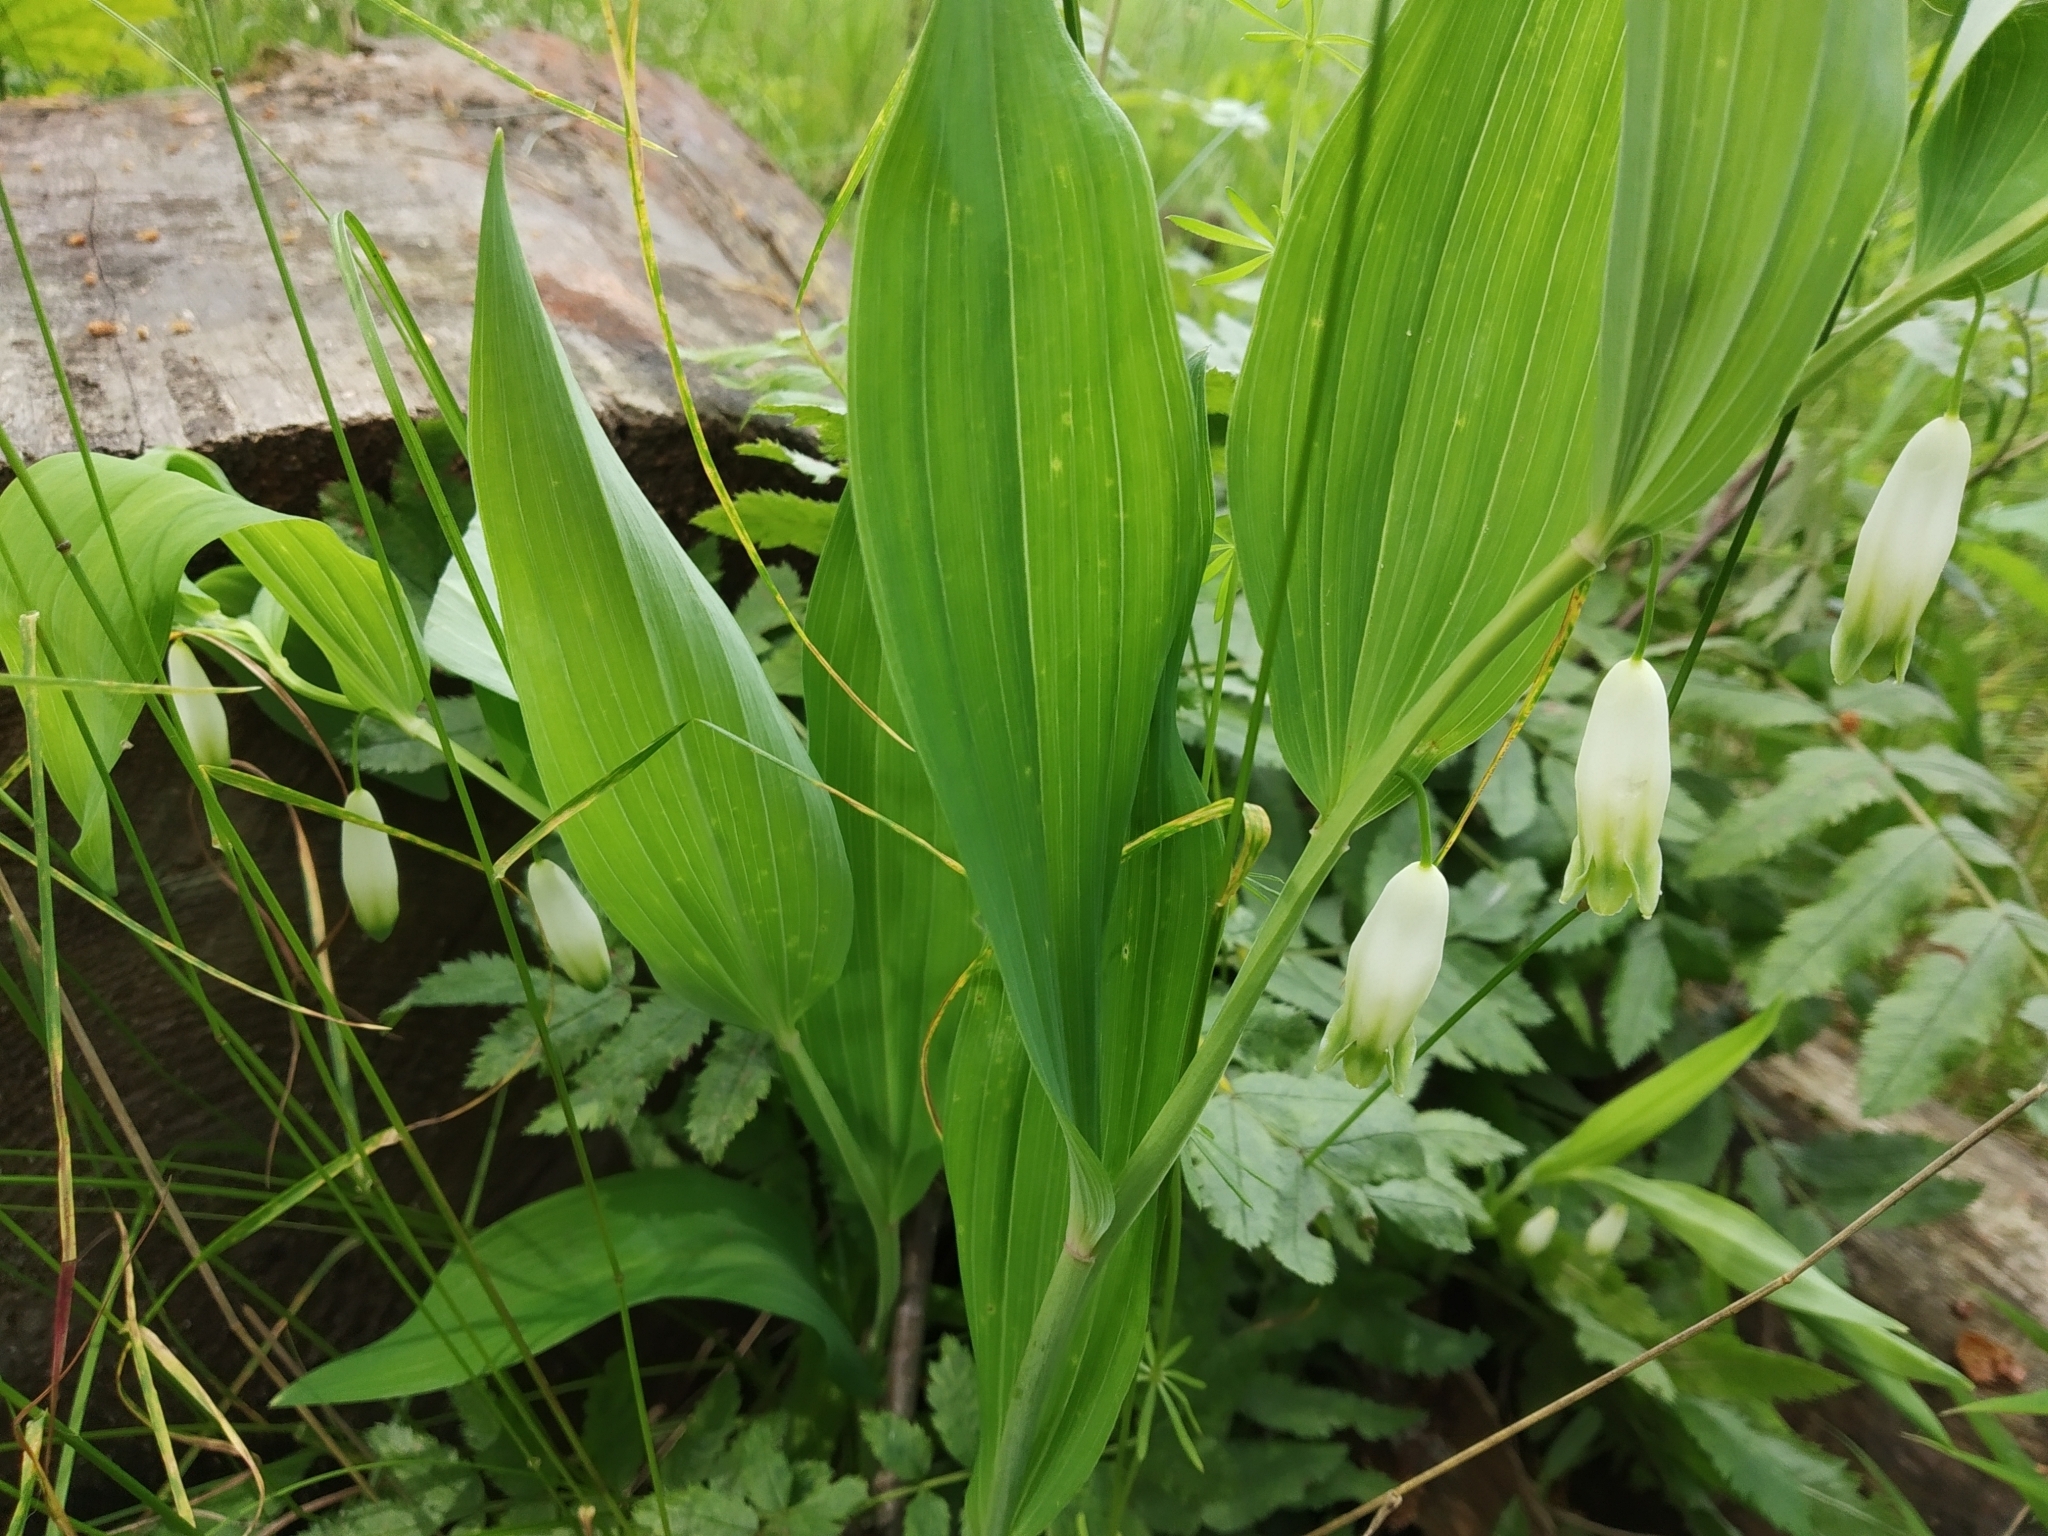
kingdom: Plantae
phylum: Tracheophyta
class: Liliopsida
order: Asparagales
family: Asparagaceae
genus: Polygonatum
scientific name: Polygonatum odoratum
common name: Angular solomon's-seal
